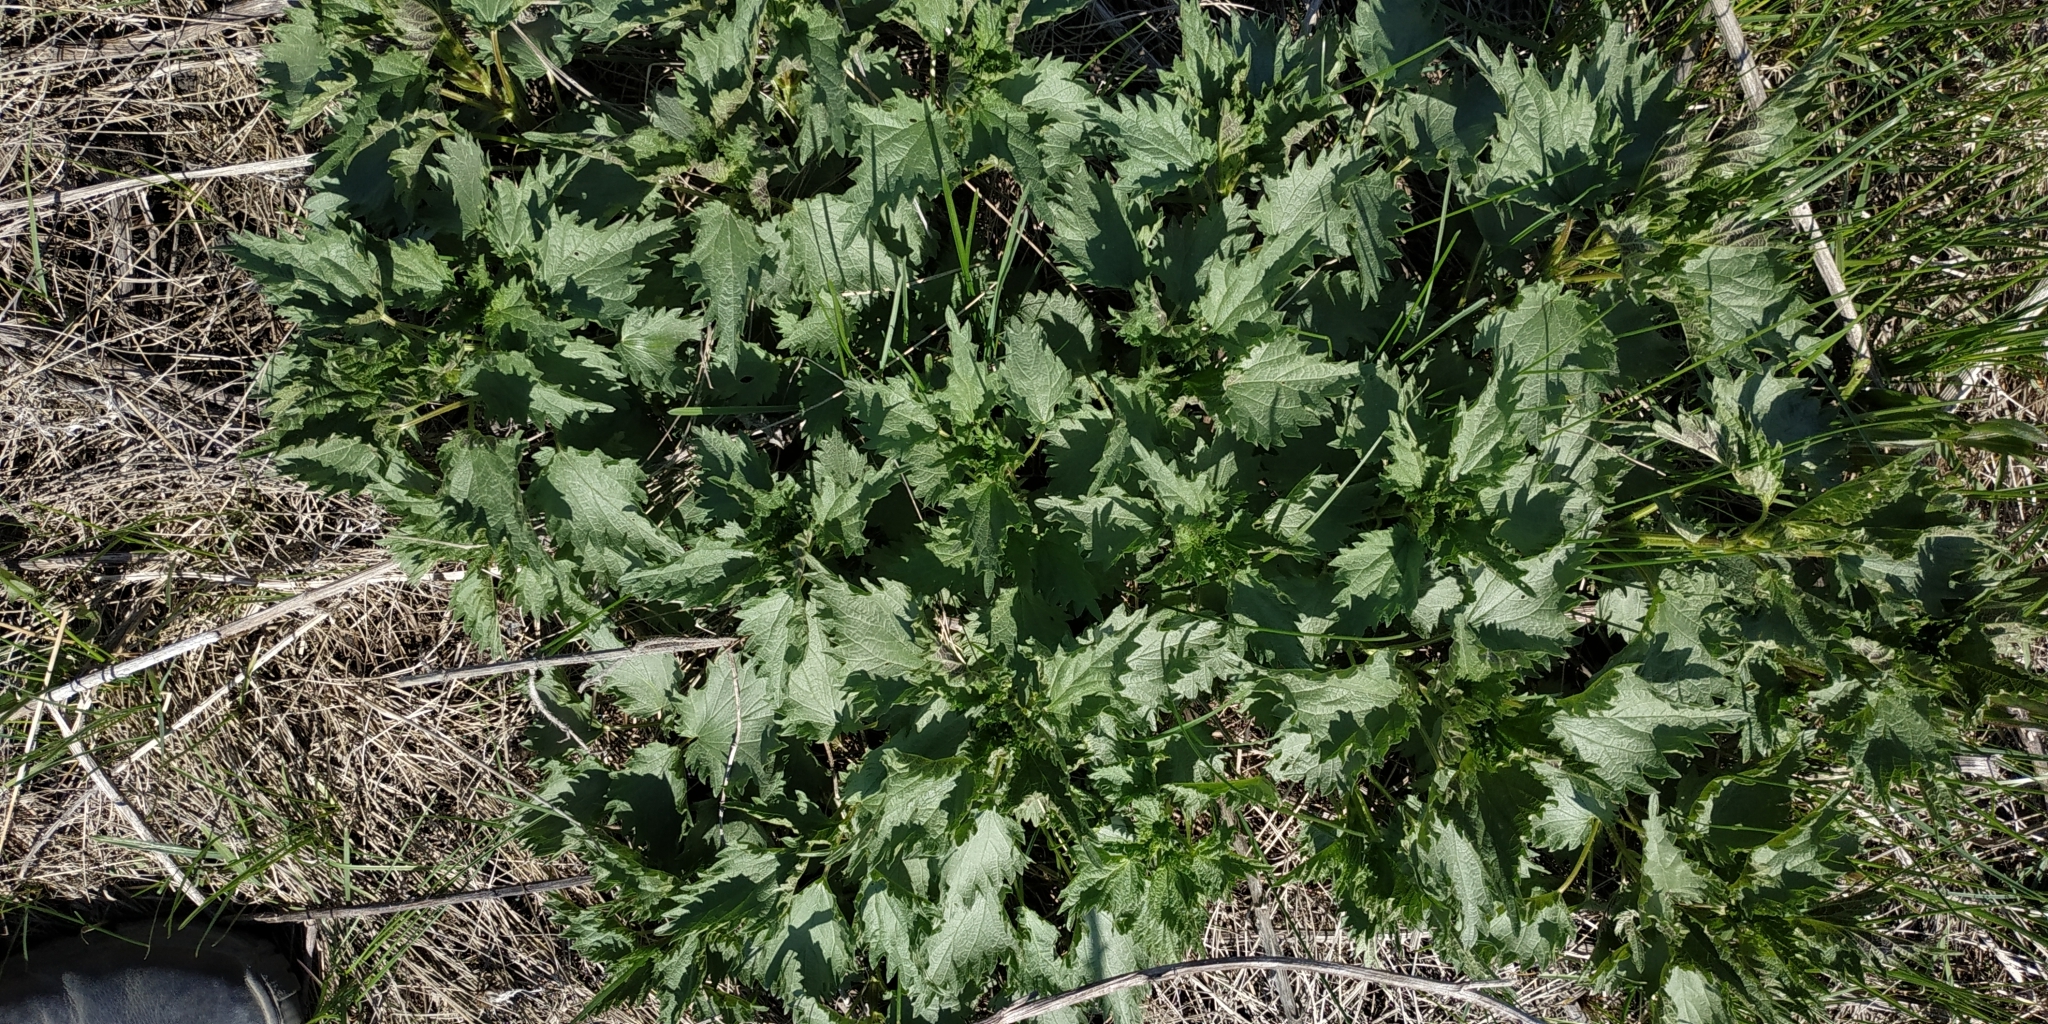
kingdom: Plantae
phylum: Tracheophyta
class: Magnoliopsida
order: Rosales
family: Urticaceae
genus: Urtica
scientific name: Urtica dioica
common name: Common nettle
